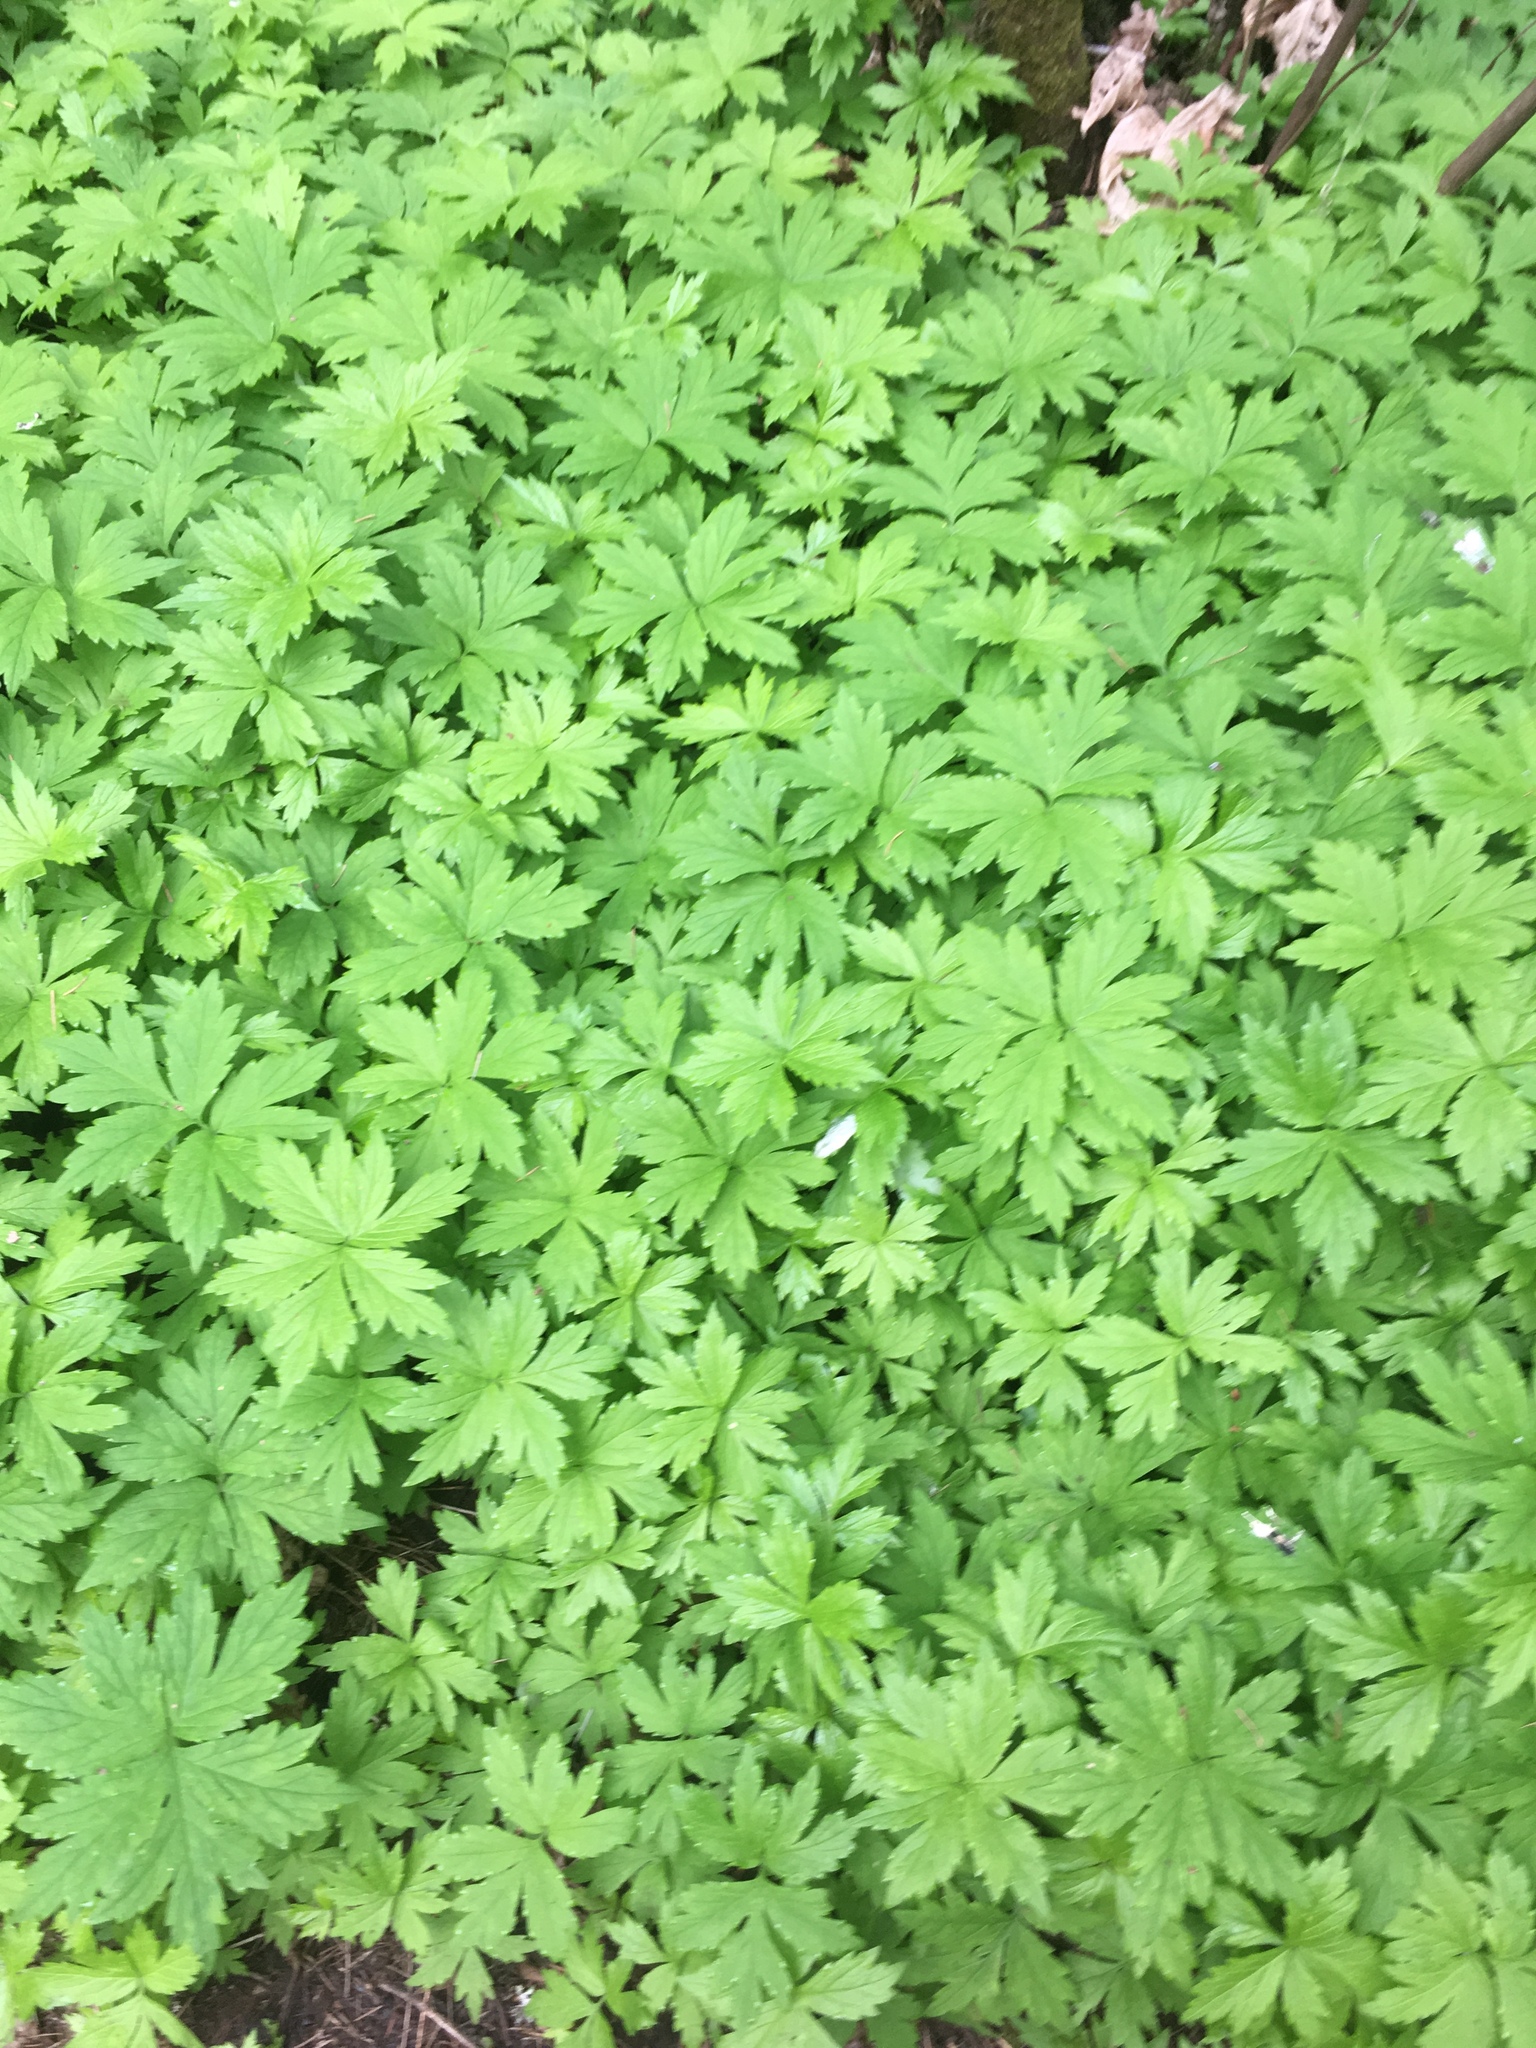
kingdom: Plantae
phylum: Tracheophyta
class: Magnoliopsida
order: Boraginales
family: Hydrophyllaceae
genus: Hydrophyllum
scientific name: Hydrophyllum tenuipes
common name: Pacific waterleaf
